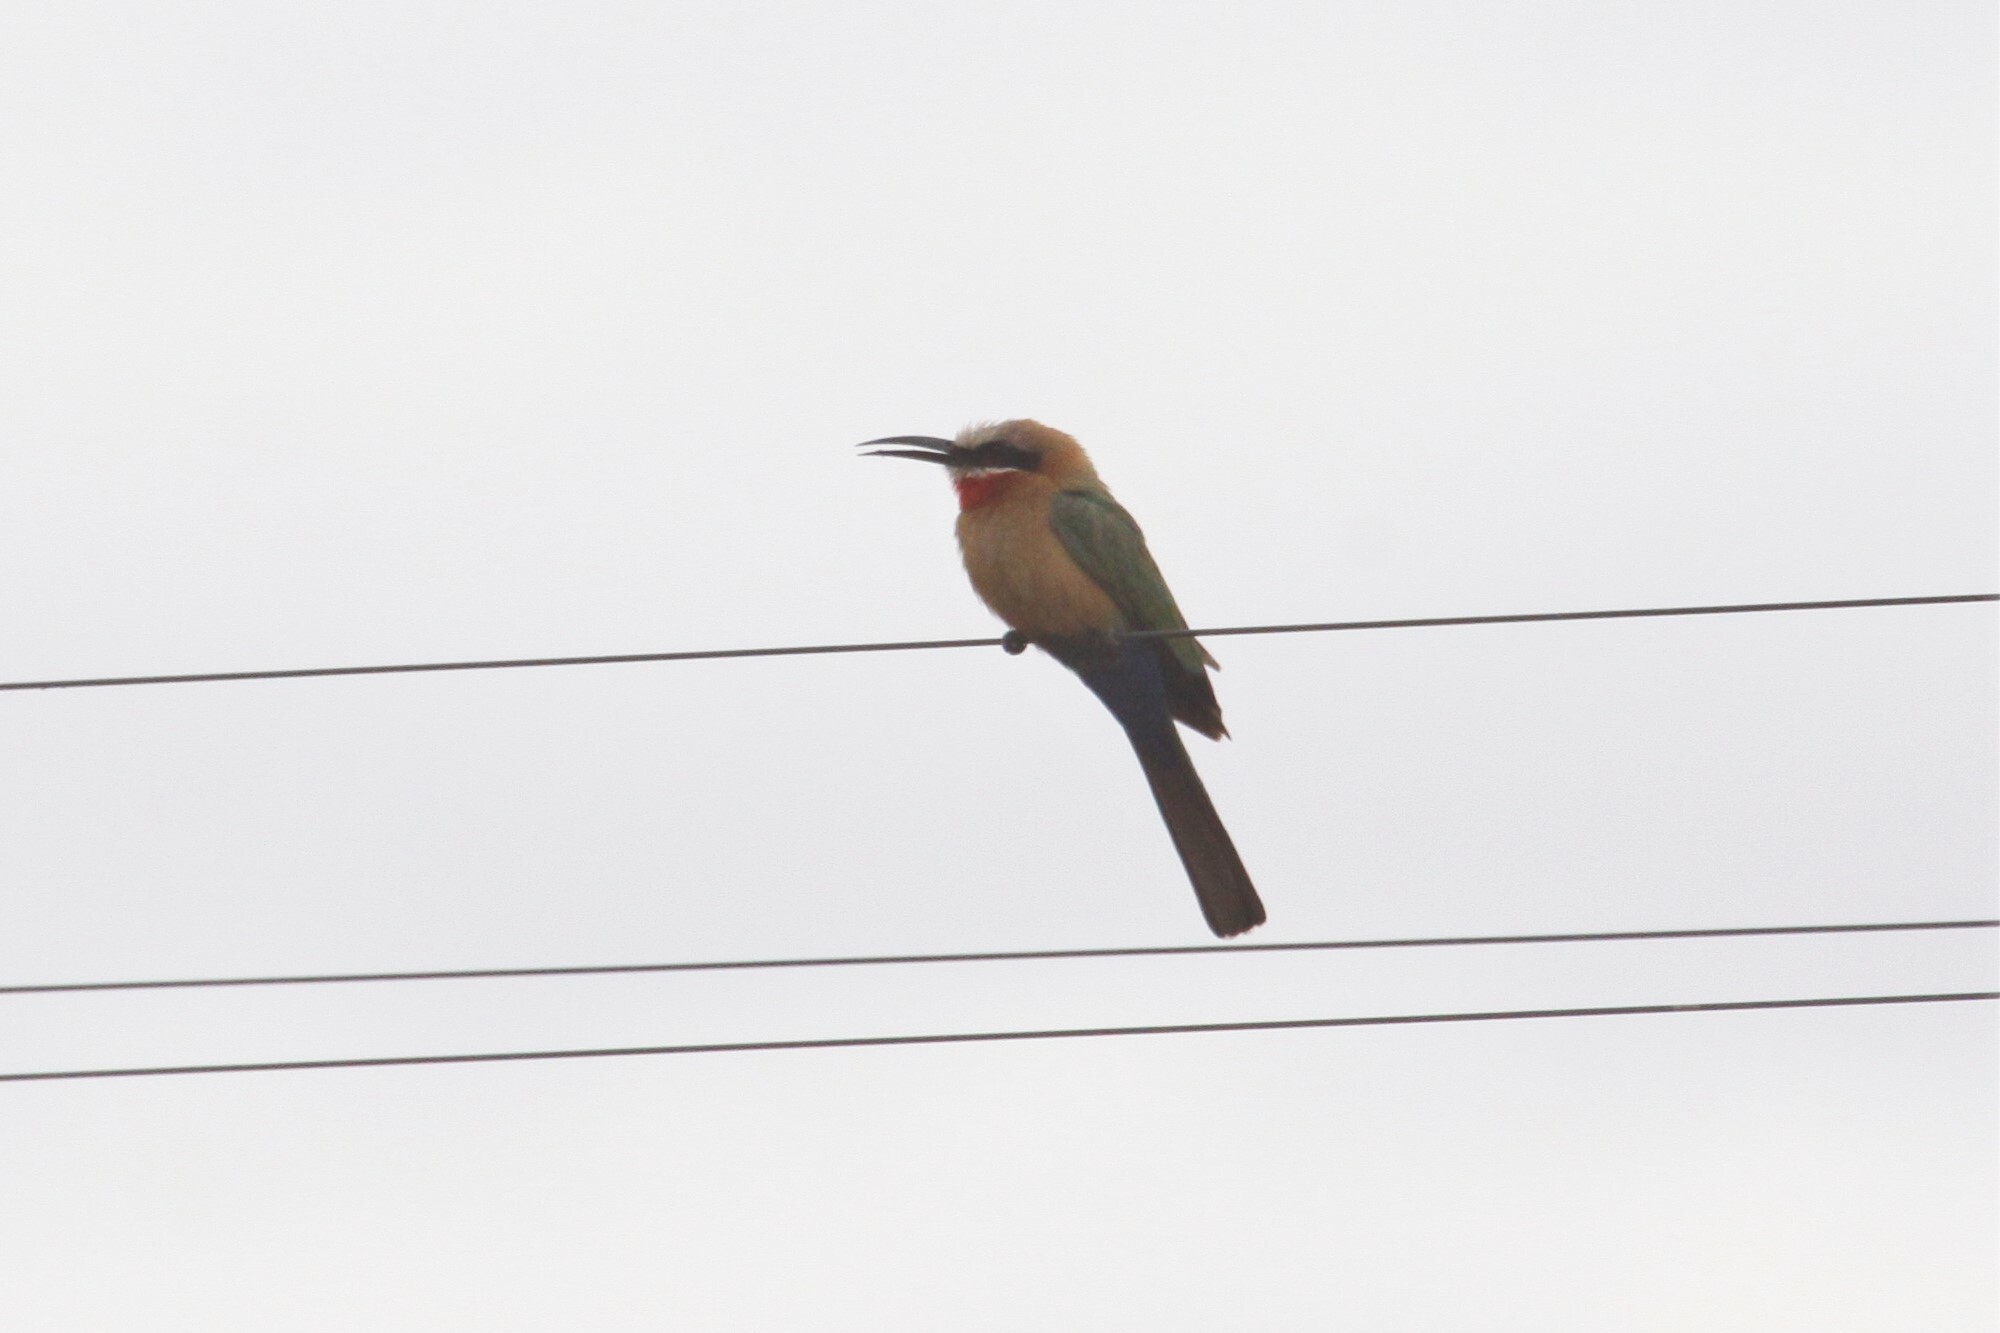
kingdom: Animalia
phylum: Chordata
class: Aves
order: Coraciiformes
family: Meropidae
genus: Merops
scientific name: Merops bullockoides
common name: White-fronted bee-eater
